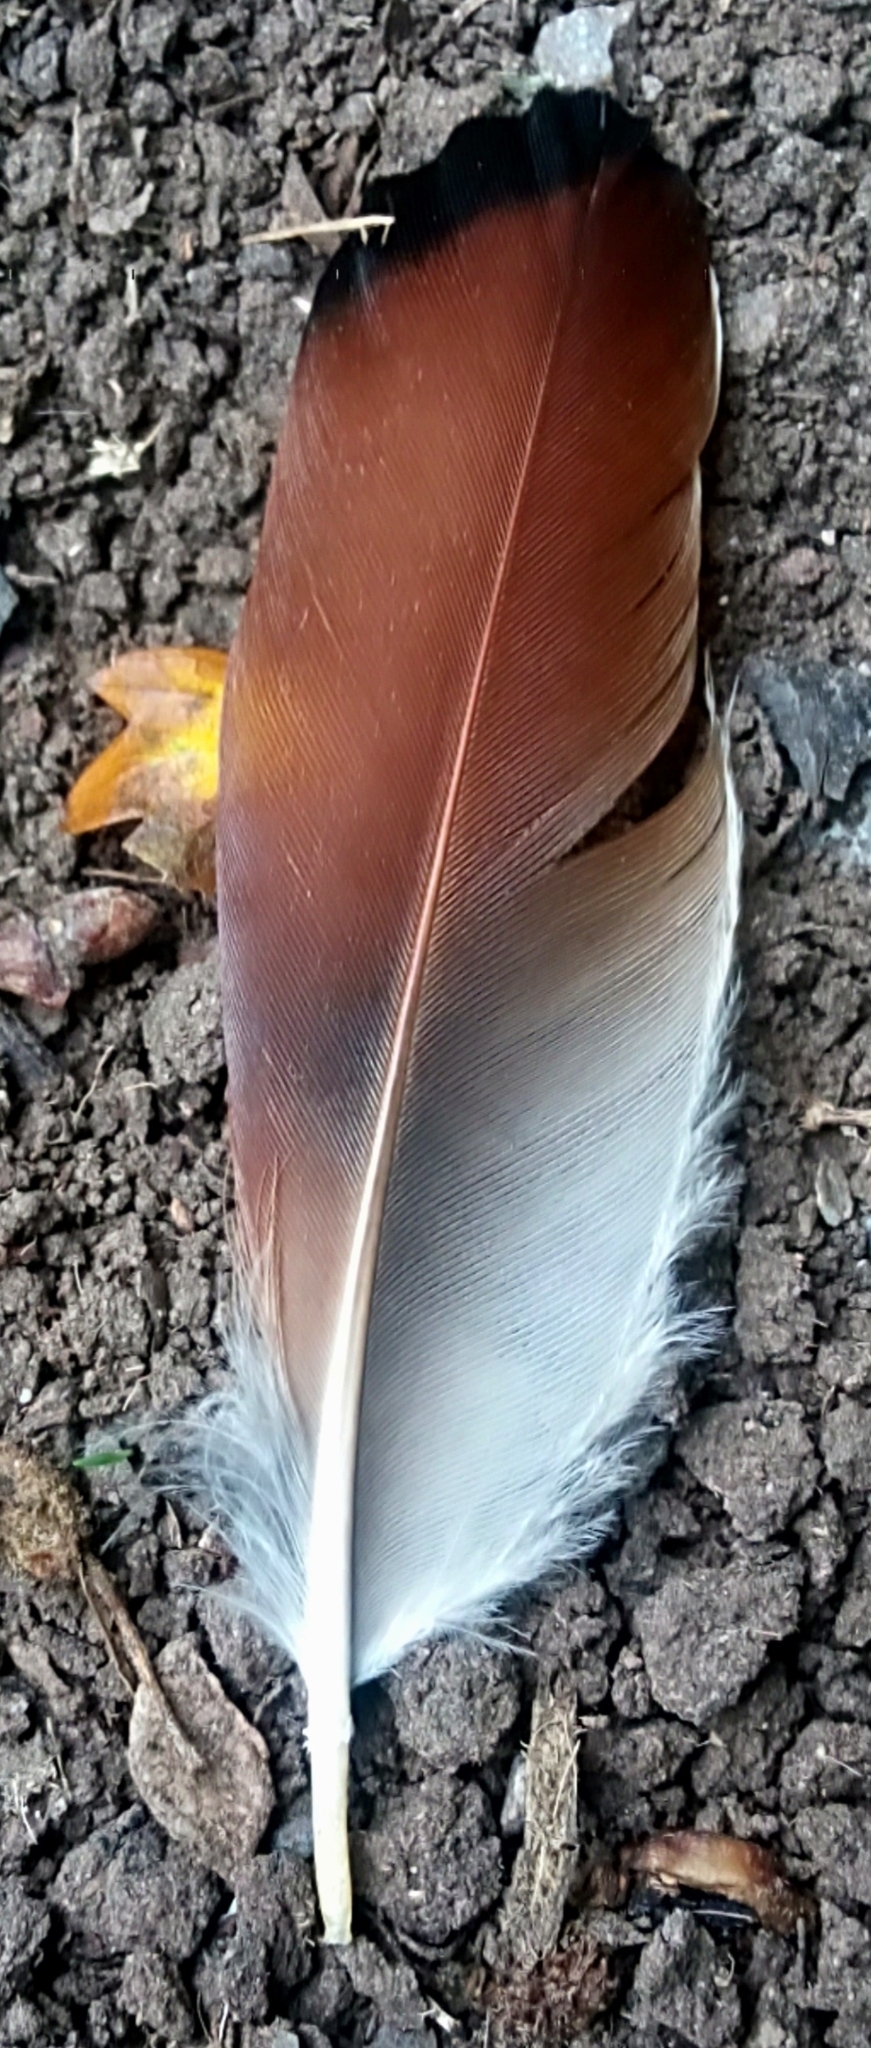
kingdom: Animalia
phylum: Chordata
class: Aves
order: Passeriformes
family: Corvidae
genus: Garrulus
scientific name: Garrulus glandarius
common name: Eurasian jay
